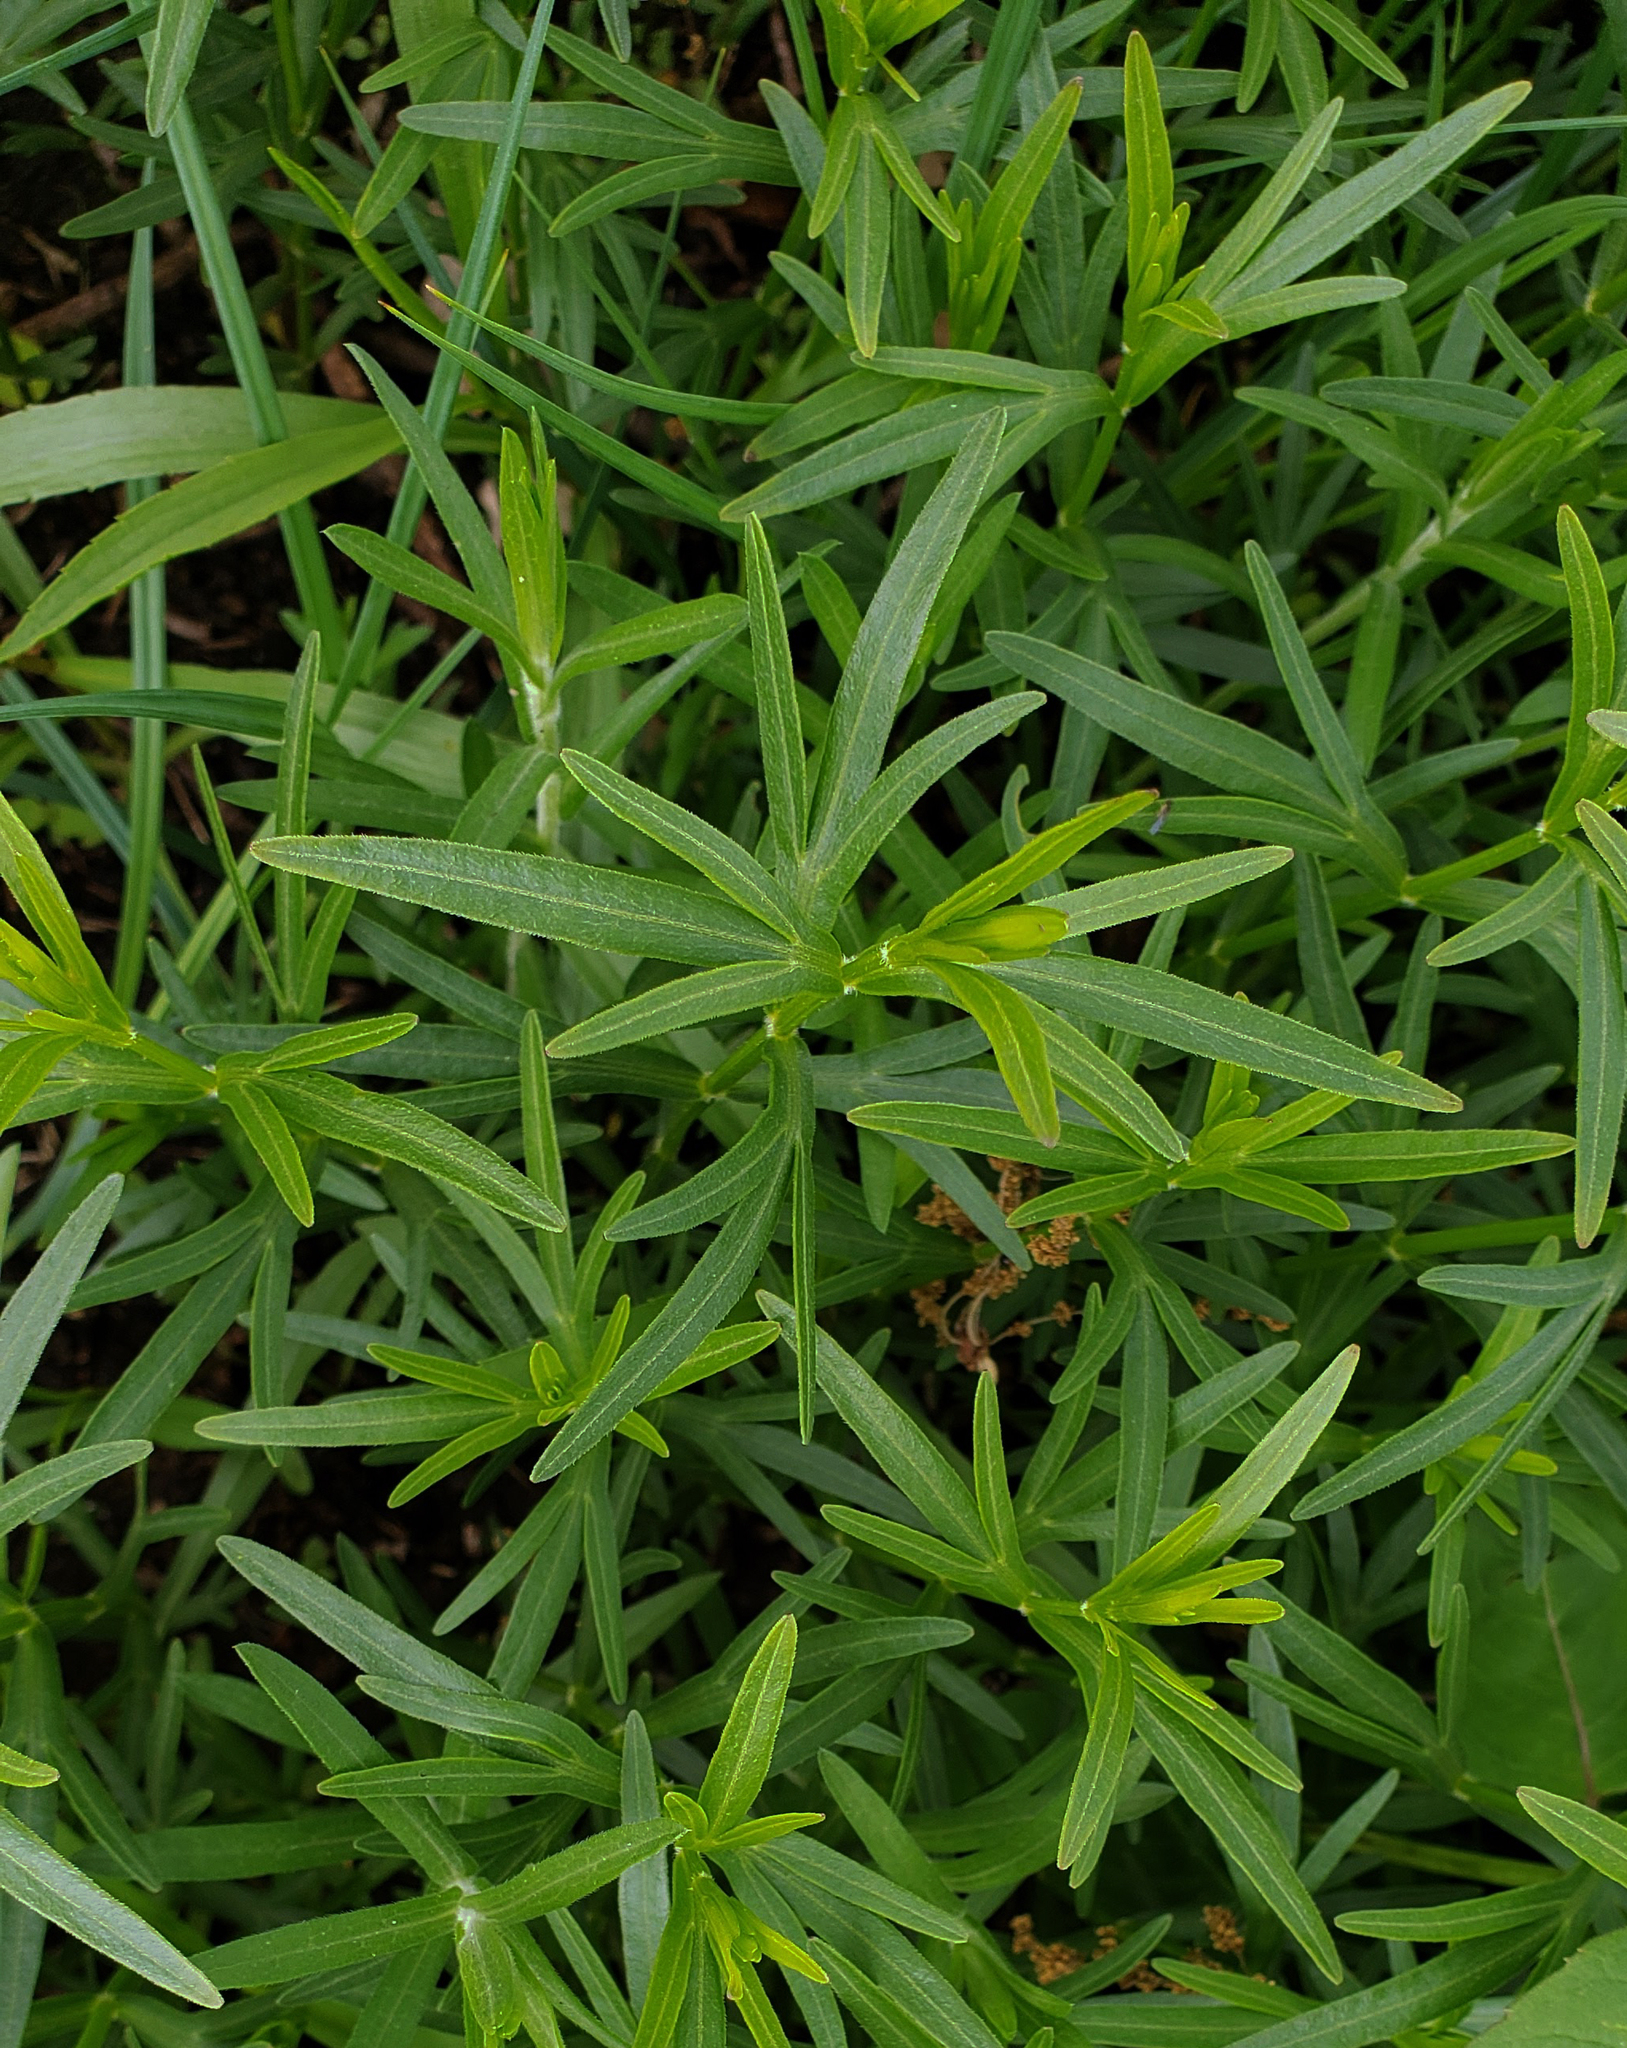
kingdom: Plantae
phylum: Tracheophyta
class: Magnoliopsida
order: Asterales
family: Asteraceae
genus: Coreopsis
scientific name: Coreopsis palmata
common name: Prairie coreopsis
